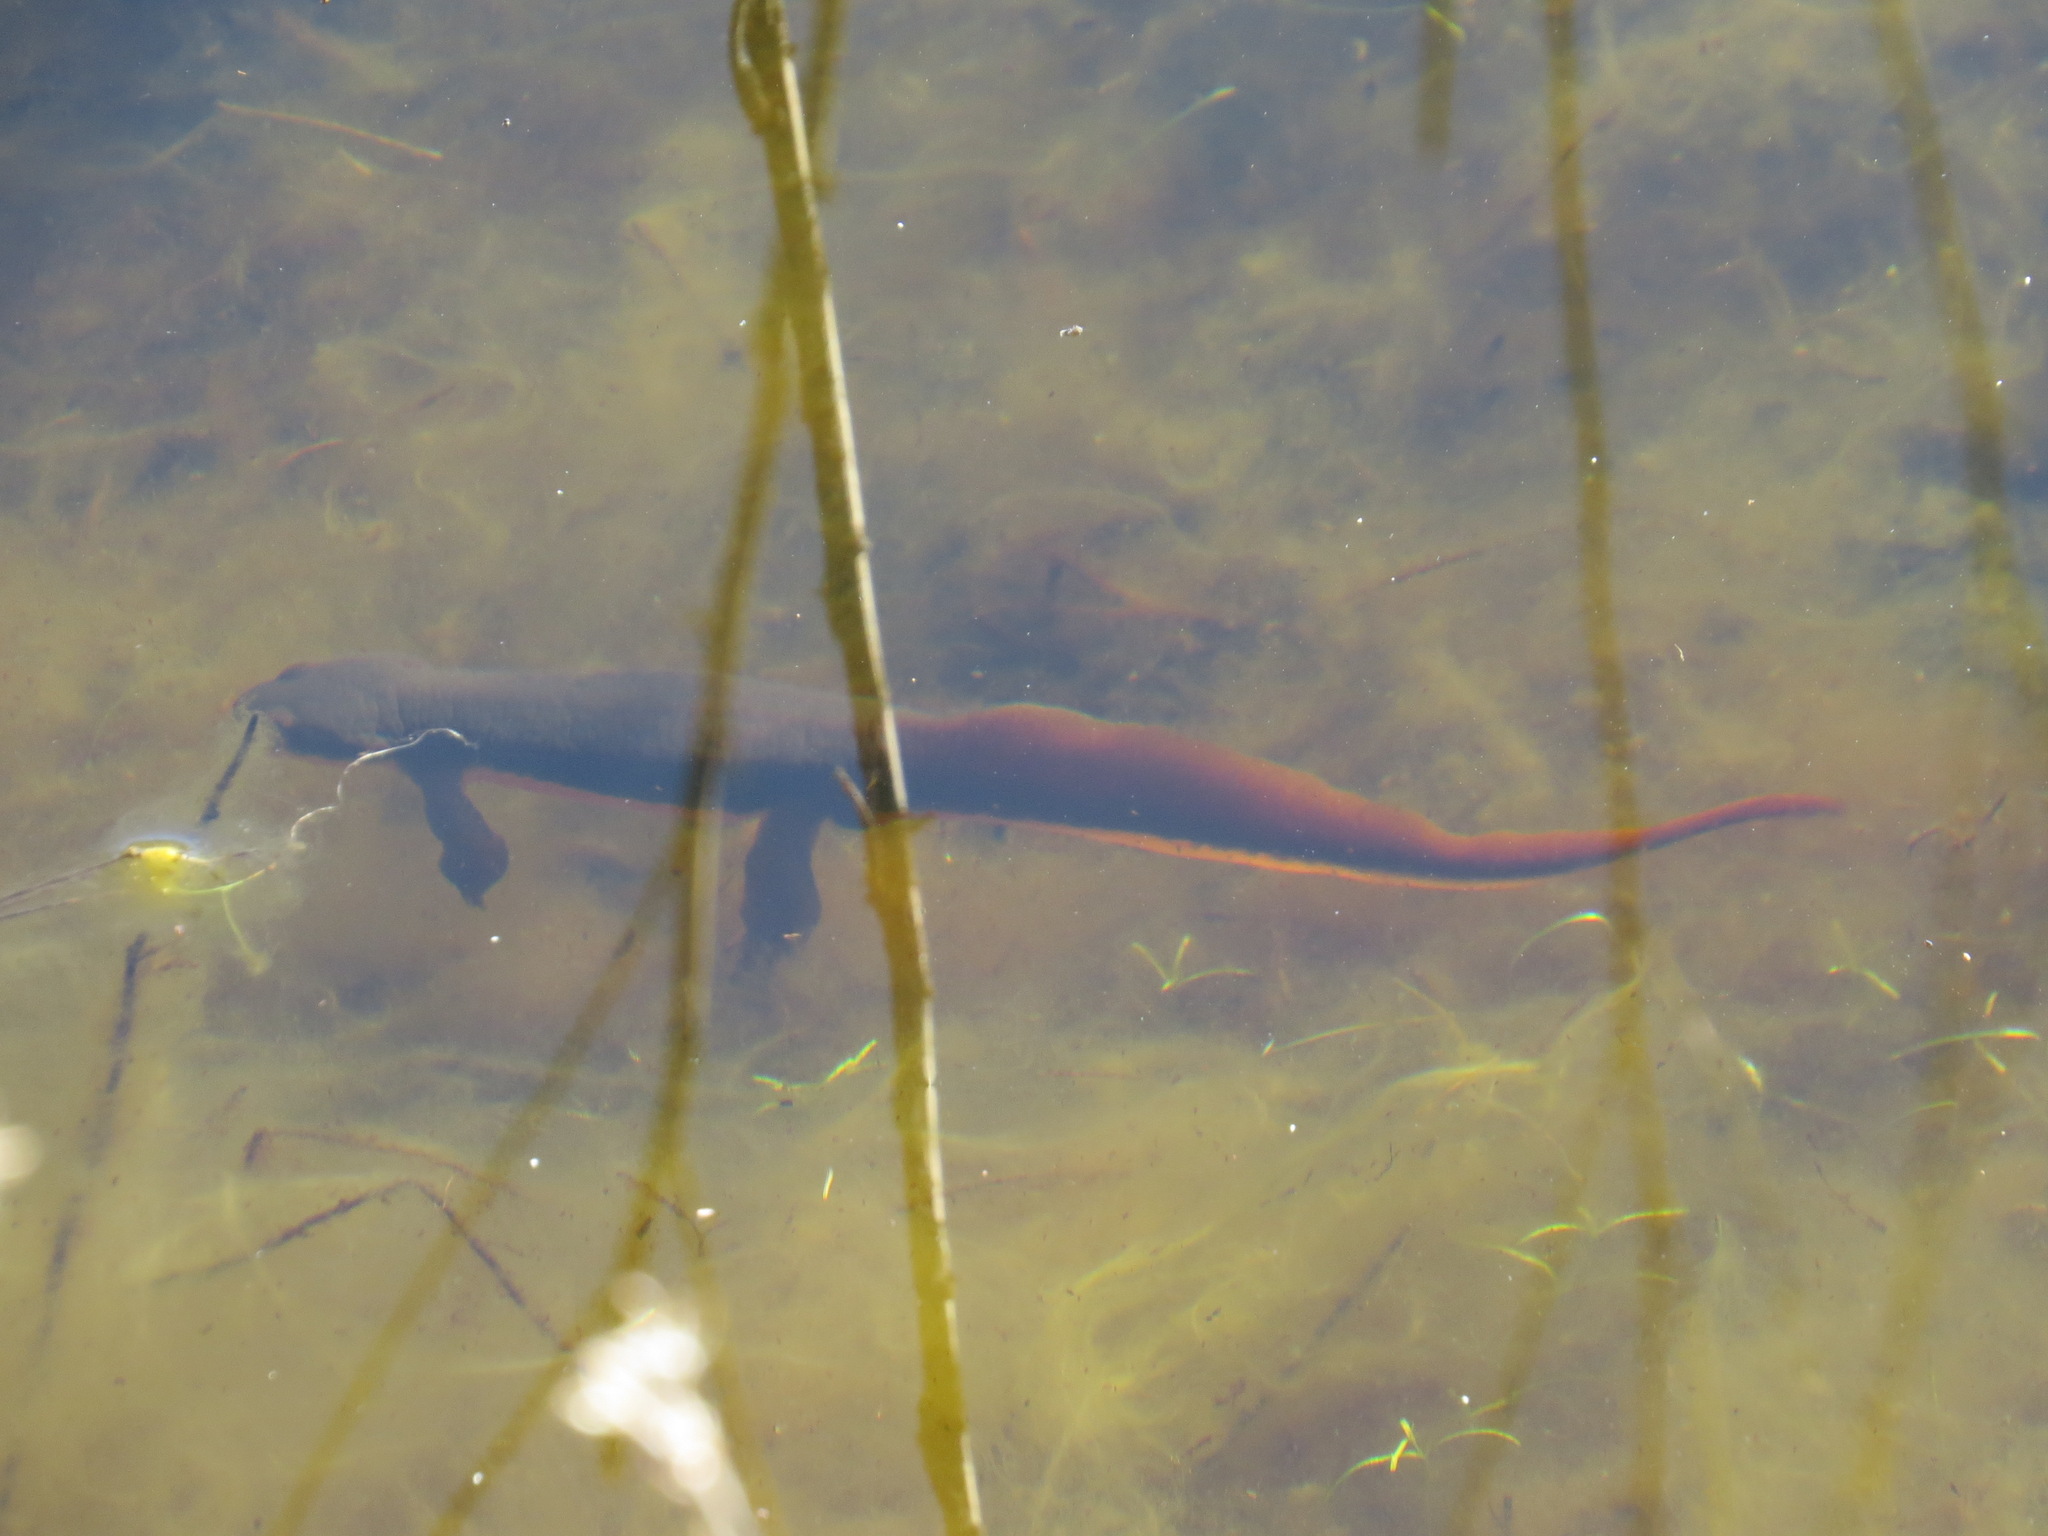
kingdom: Animalia
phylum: Chordata
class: Amphibia
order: Caudata
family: Salamandridae
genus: Taricha
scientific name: Taricha torosa
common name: California newt
